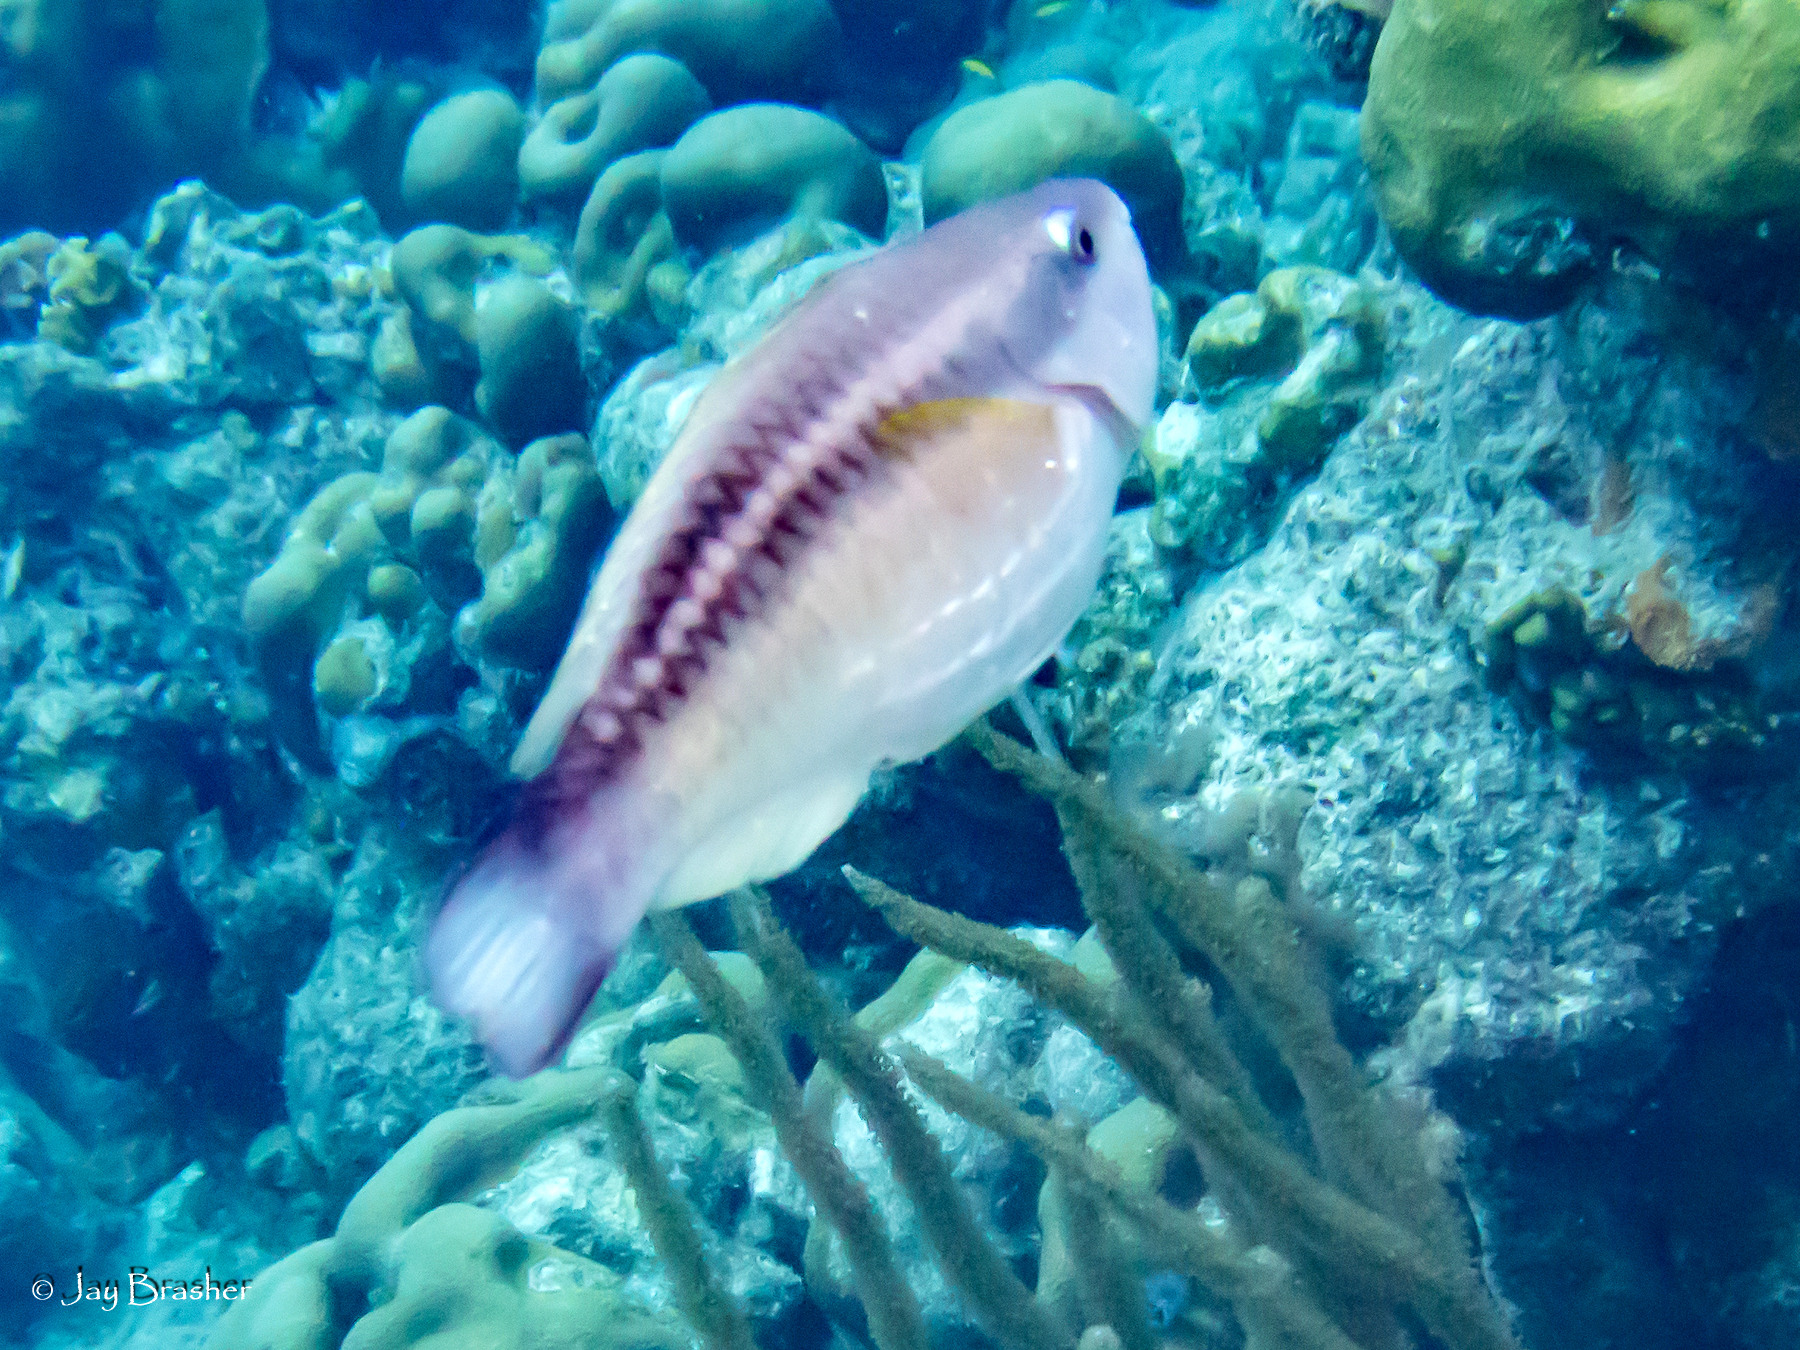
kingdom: Animalia
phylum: Chordata
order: Perciformes
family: Scaridae
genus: Scarus
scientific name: Scarus taeniopterus
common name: Princess parrotfish
